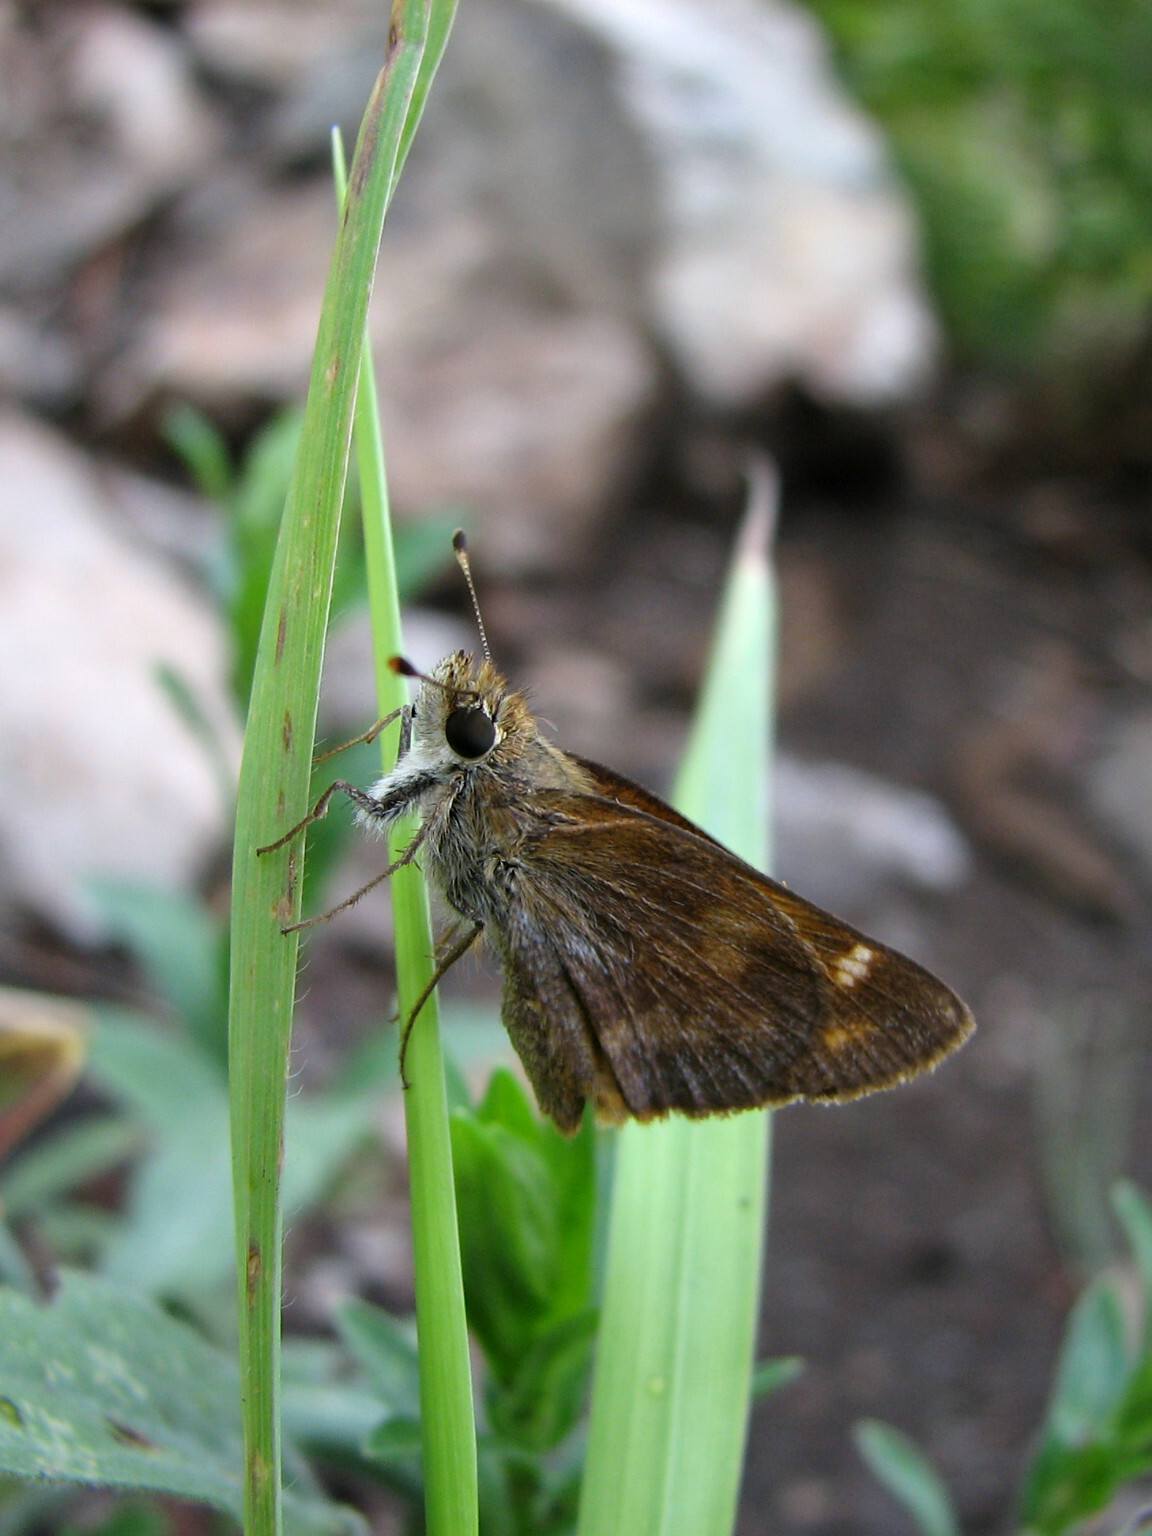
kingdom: Animalia
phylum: Arthropoda
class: Insecta
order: Lepidoptera
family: Hesperiidae
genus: Lon
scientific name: Lon taxiles
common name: Taxiles skipper
